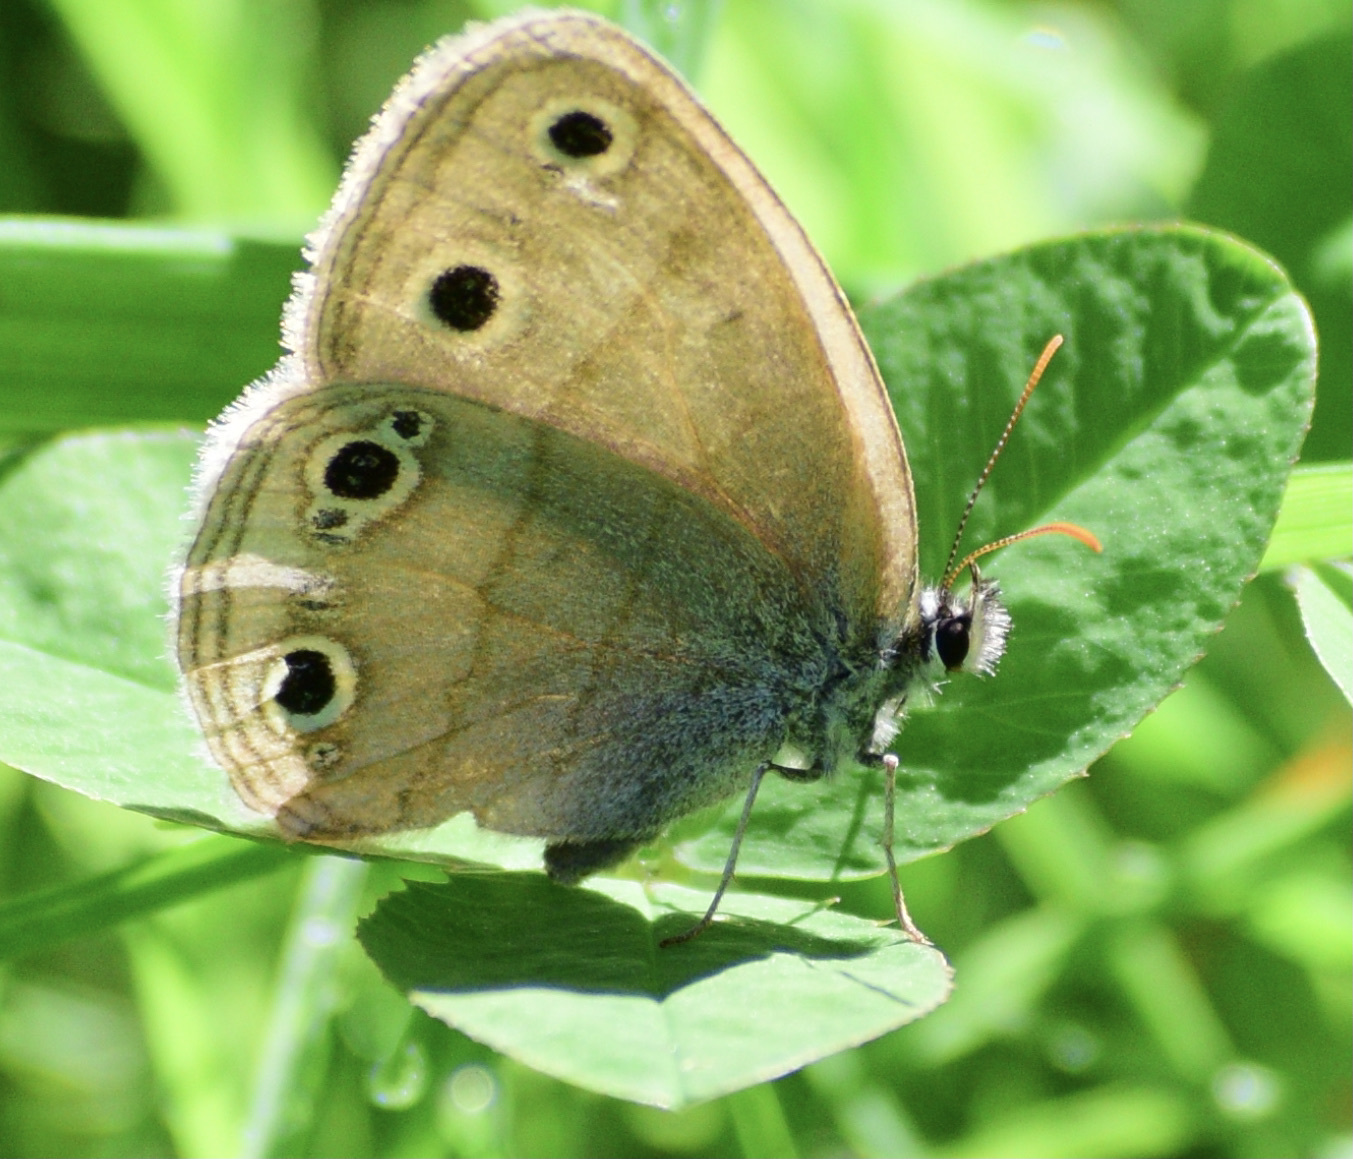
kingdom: Animalia
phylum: Arthropoda
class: Insecta
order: Lepidoptera
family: Nymphalidae
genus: Euptychia
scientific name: Euptychia cymela
